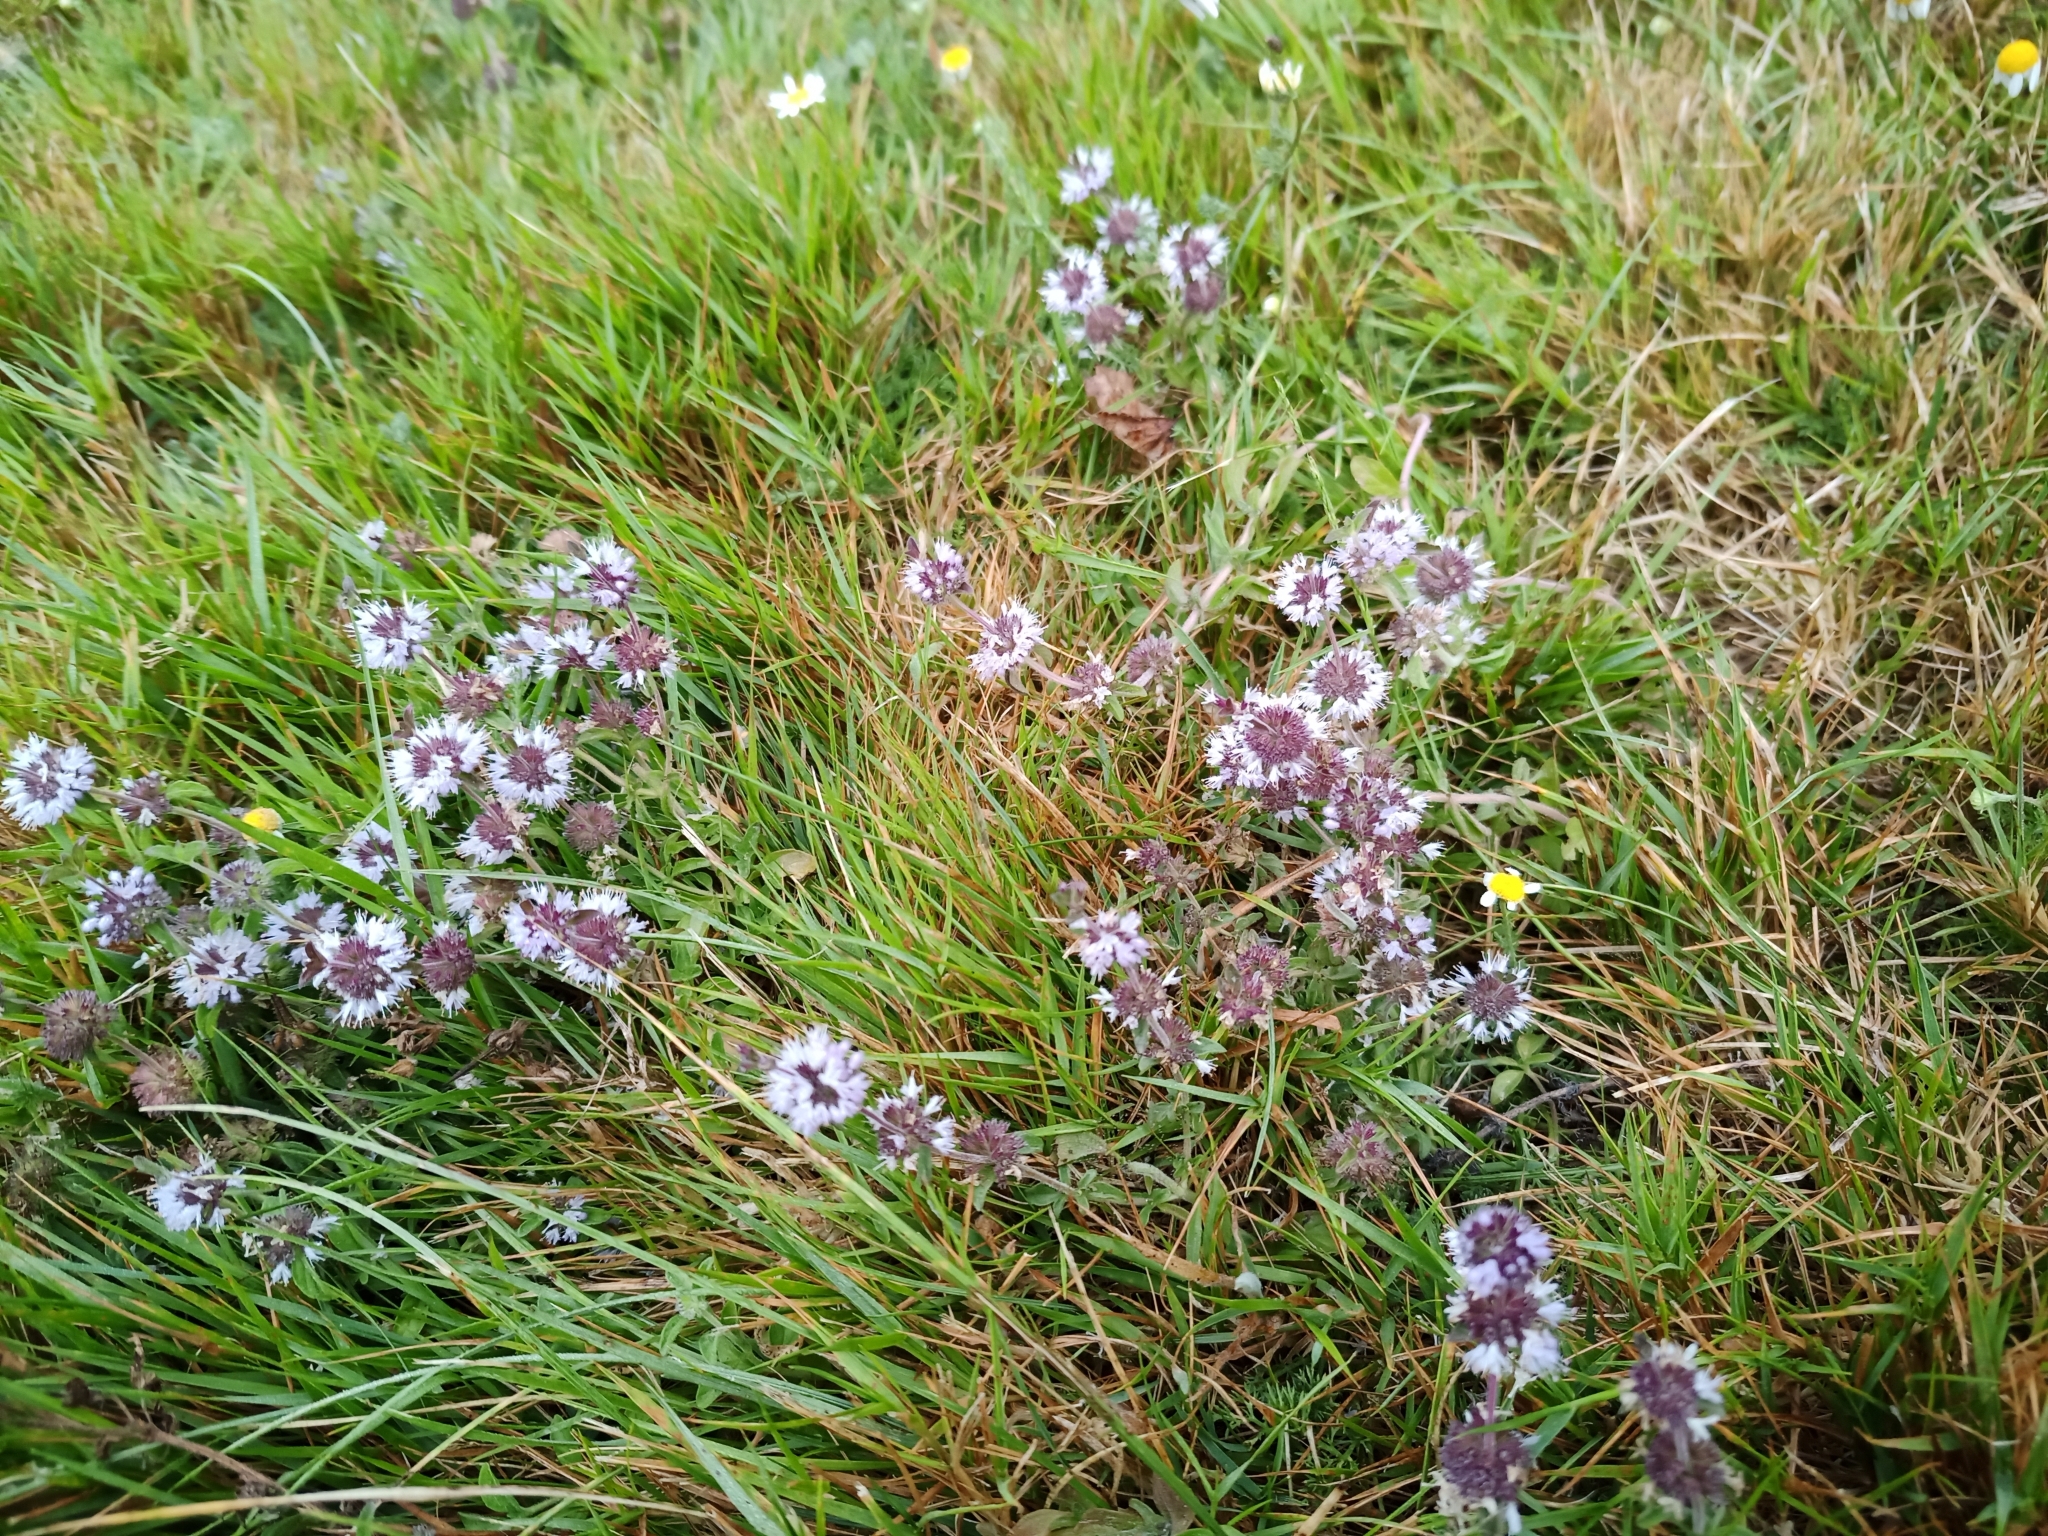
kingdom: Plantae
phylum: Tracheophyta
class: Magnoliopsida
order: Lamiales
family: Lamiaceae
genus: Mentha
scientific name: Mentha pulegium
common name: Pennyroyal
